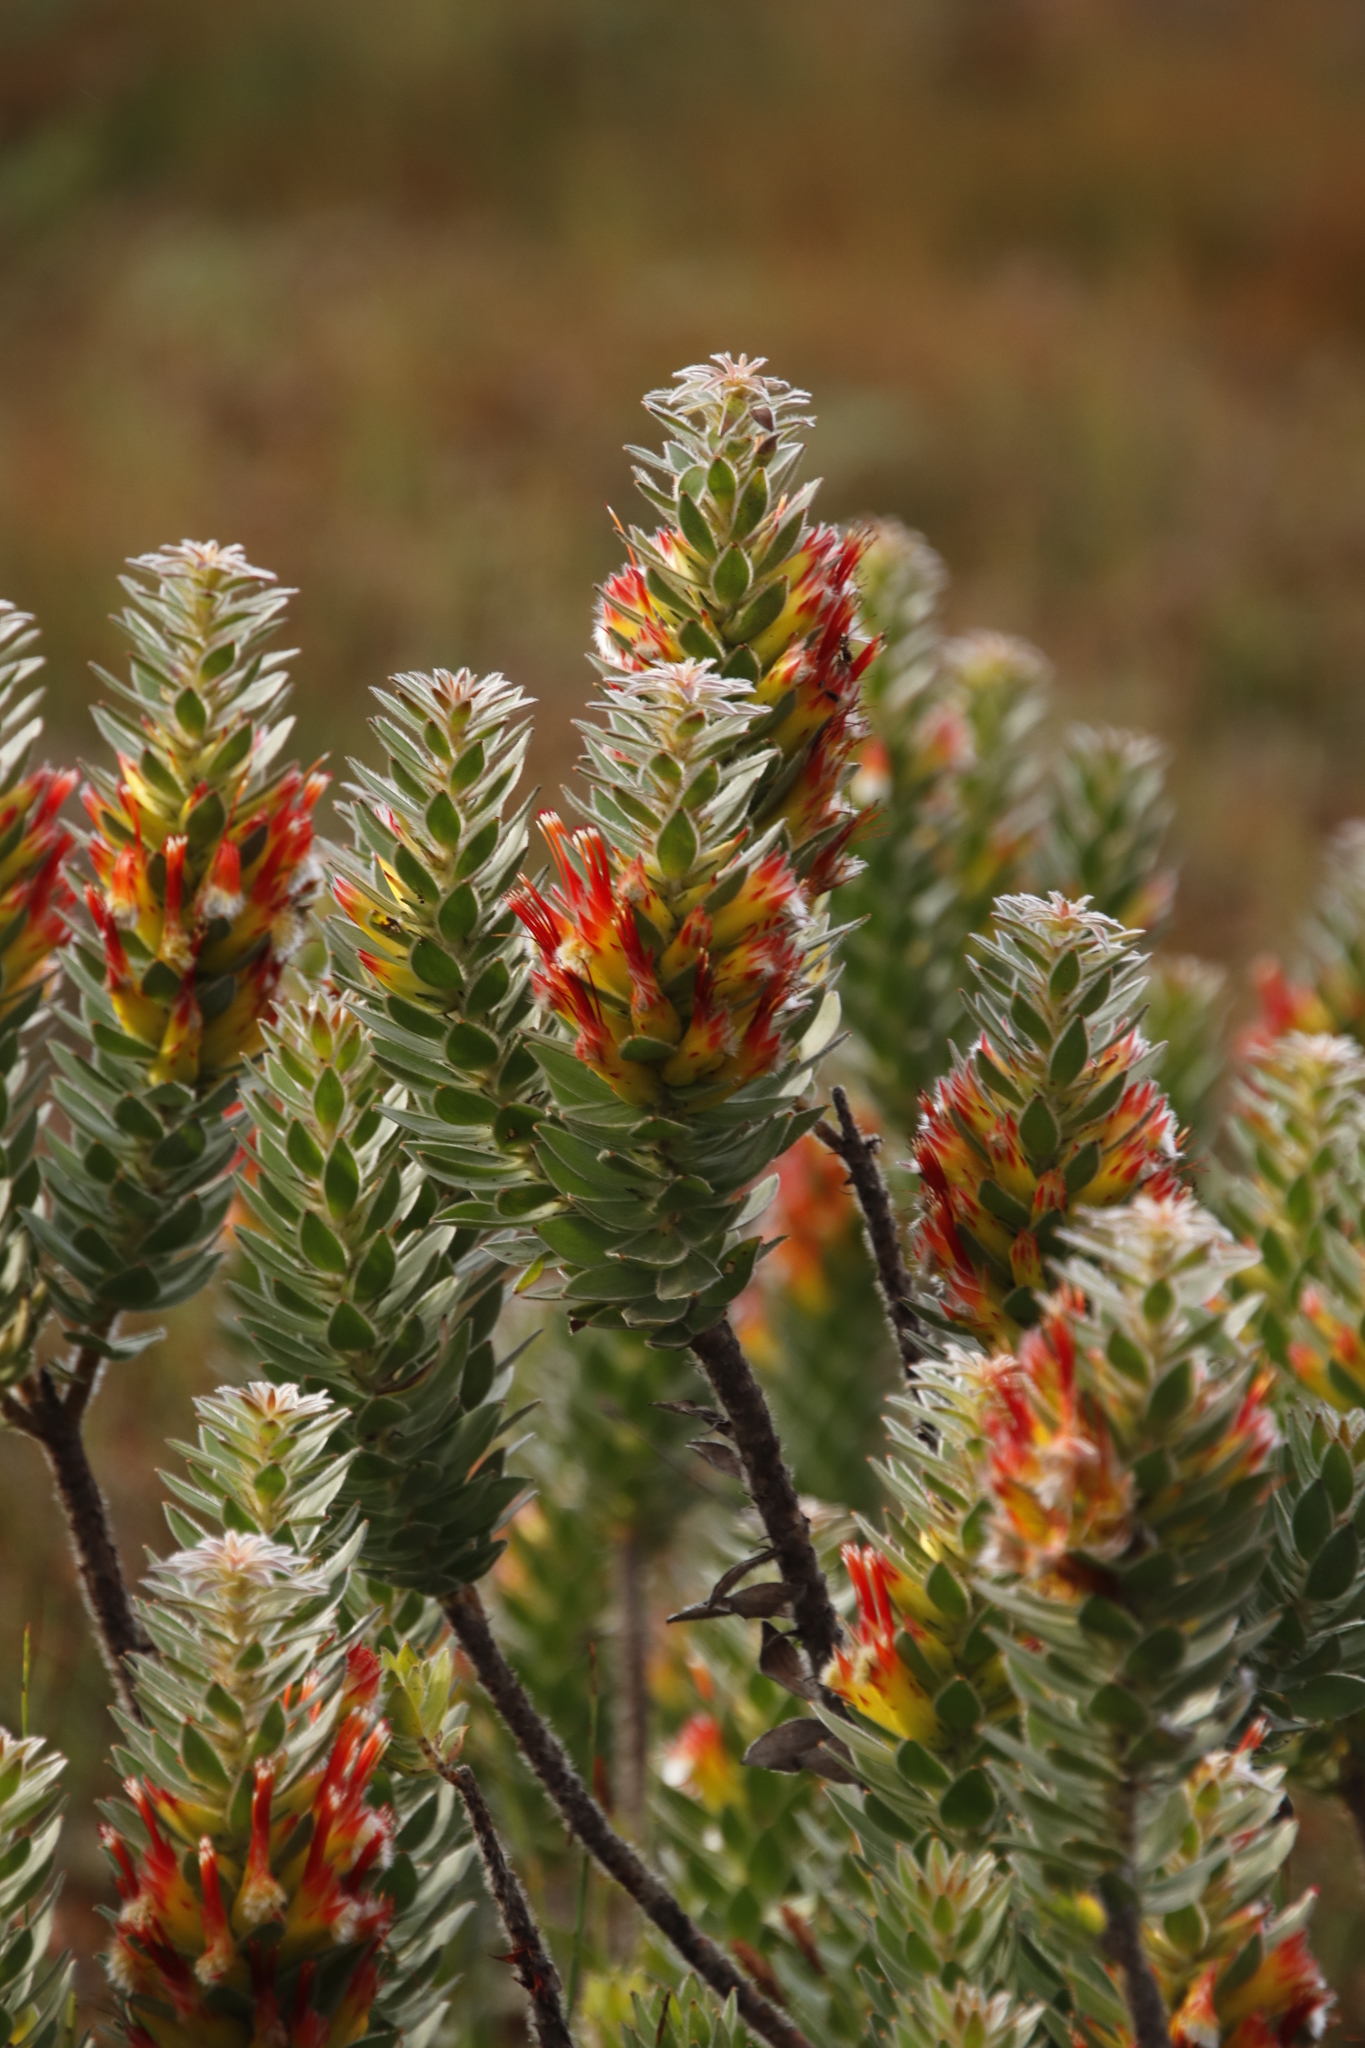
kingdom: Plantae
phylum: Tracheophyta
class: Magnoliopsida
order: Proteales
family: Proteaceae
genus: Mimetes
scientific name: Mimetes hirtus
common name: Marsh pagoda
